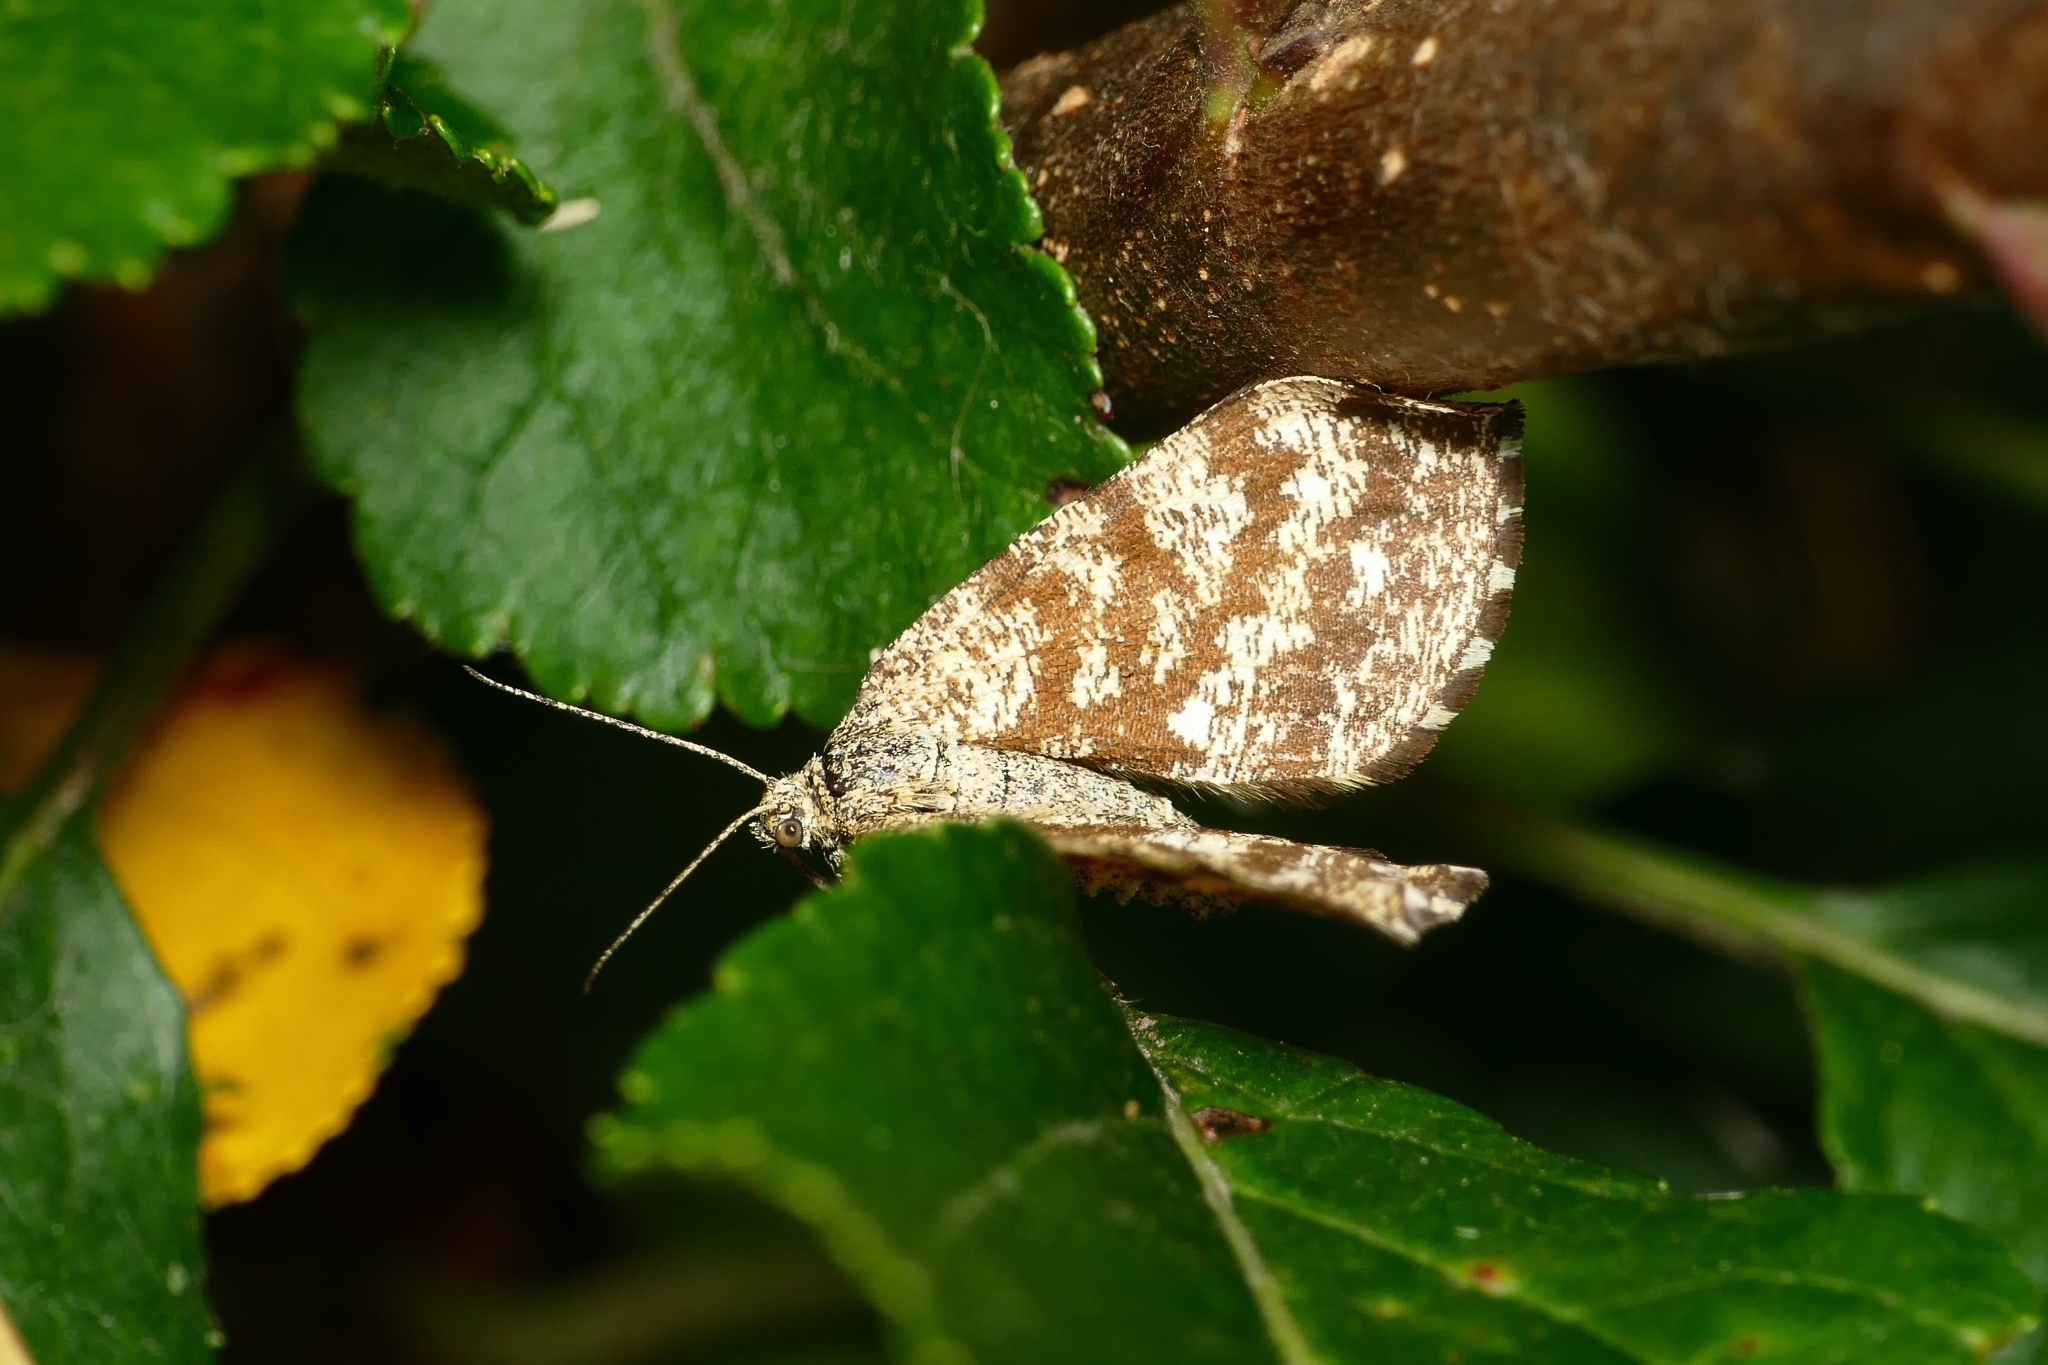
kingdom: Animalia
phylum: Arthropoda
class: Insecta
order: Lepidoptera
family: Geometridae
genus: Ematurga
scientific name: Ematurga atomaria
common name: Common heath
